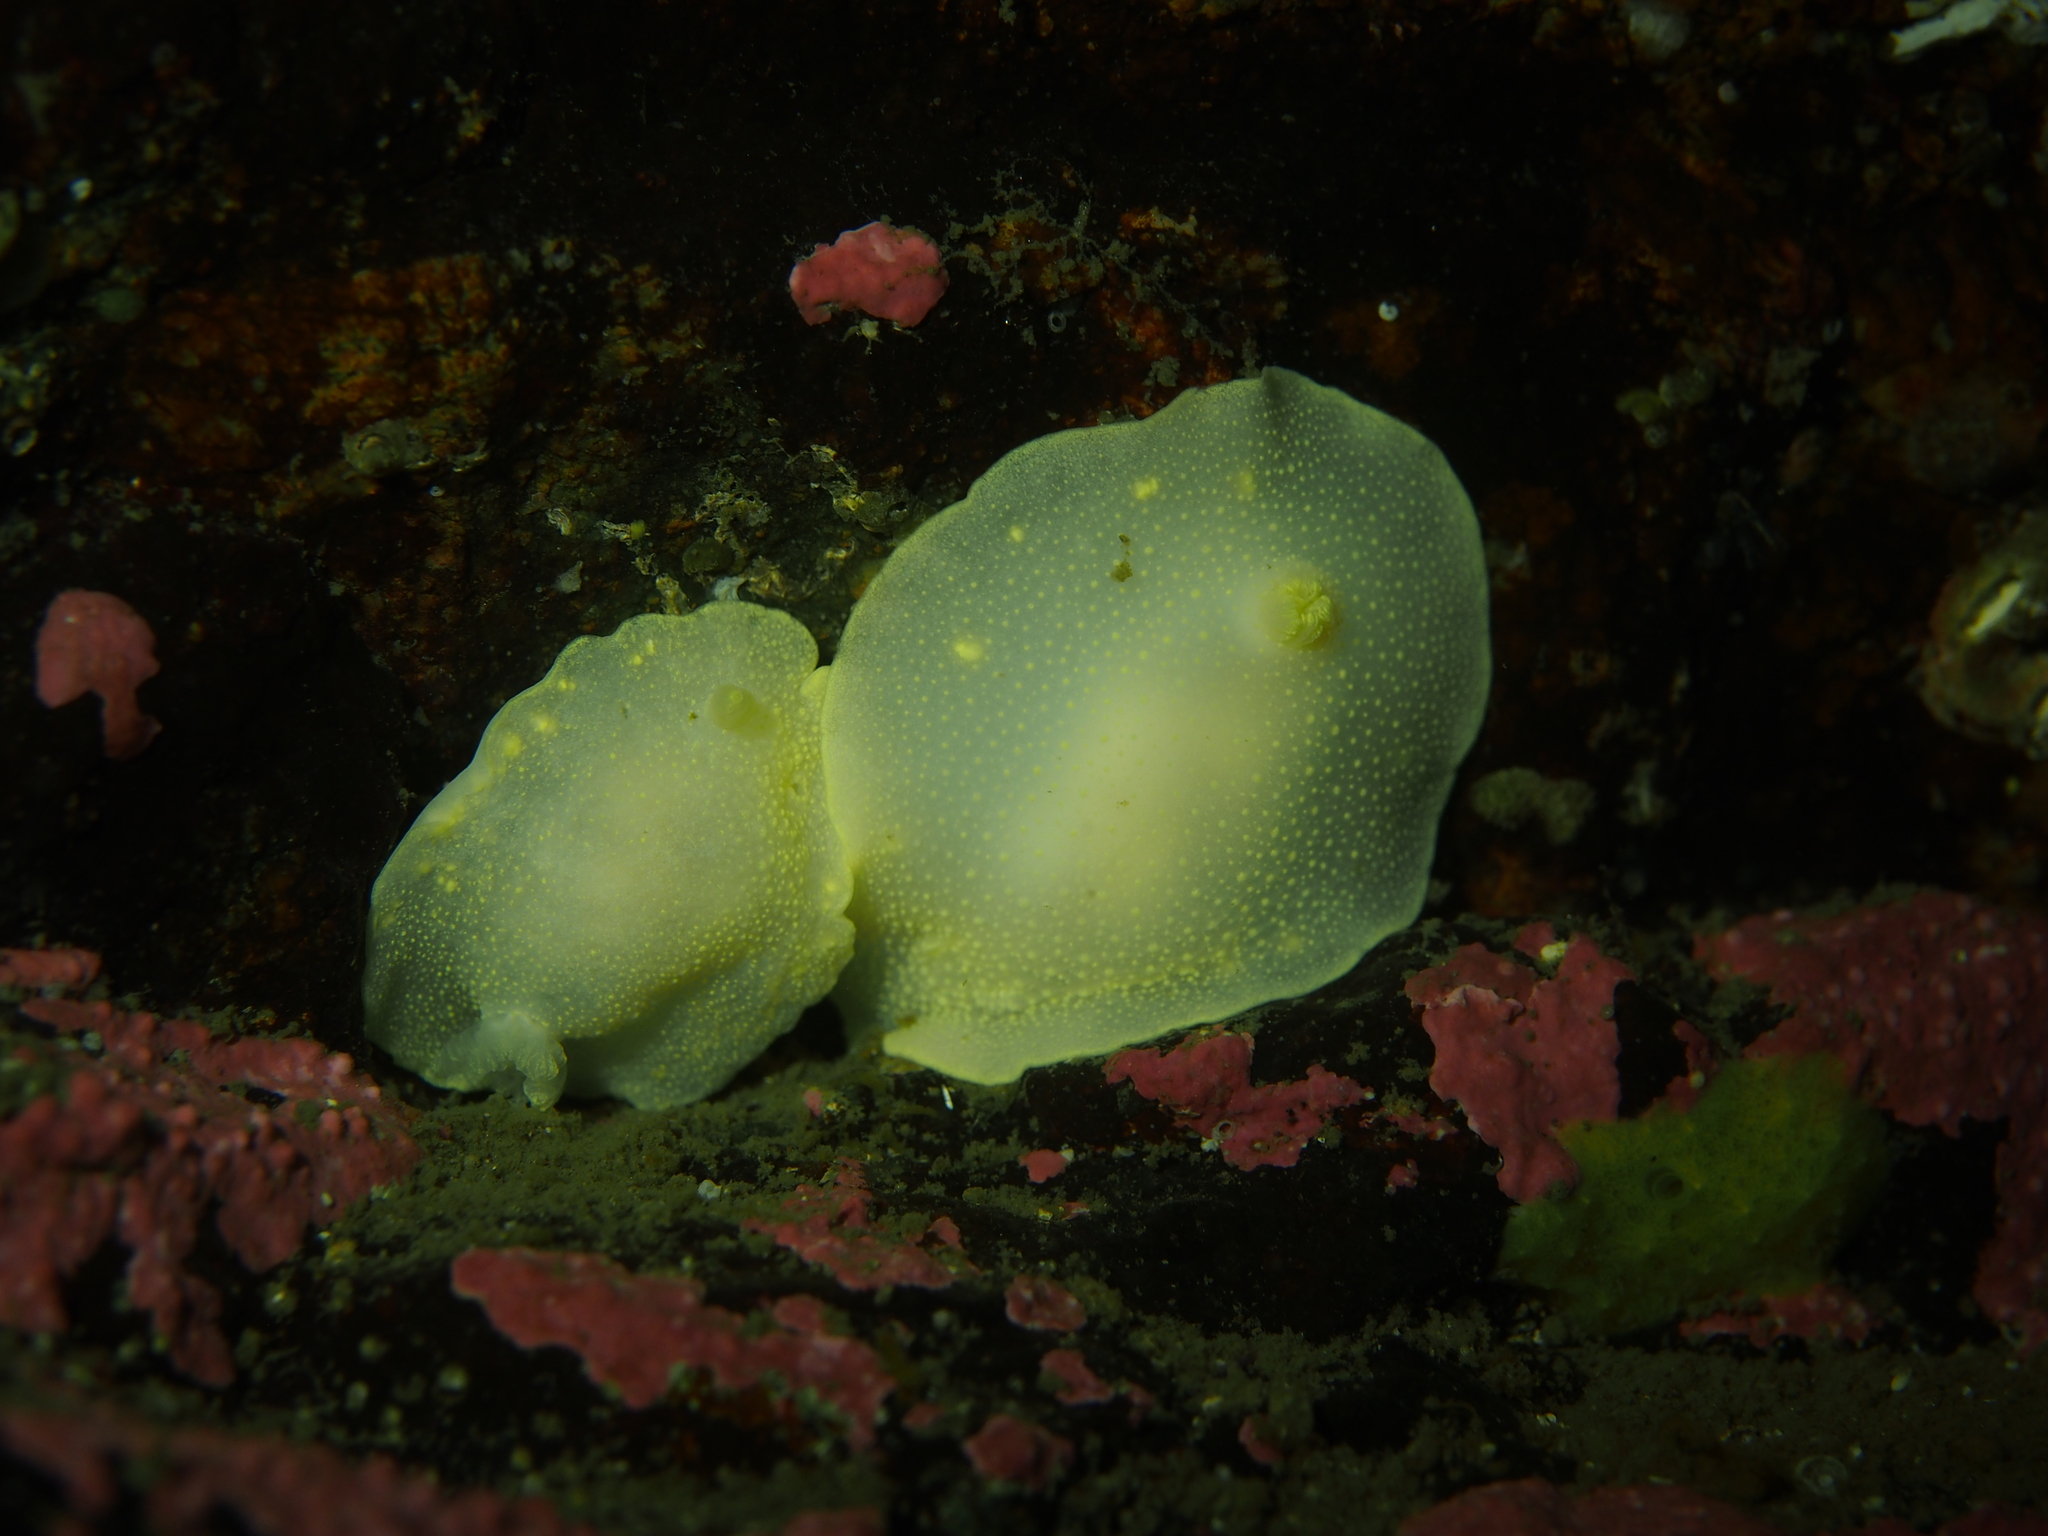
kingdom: Animalia
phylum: Mollusca
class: Gastropoda
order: Nudibranchia
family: Cadlinidae
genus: Cadlina
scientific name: Cadlina laevis
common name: White atlantic cadlina
